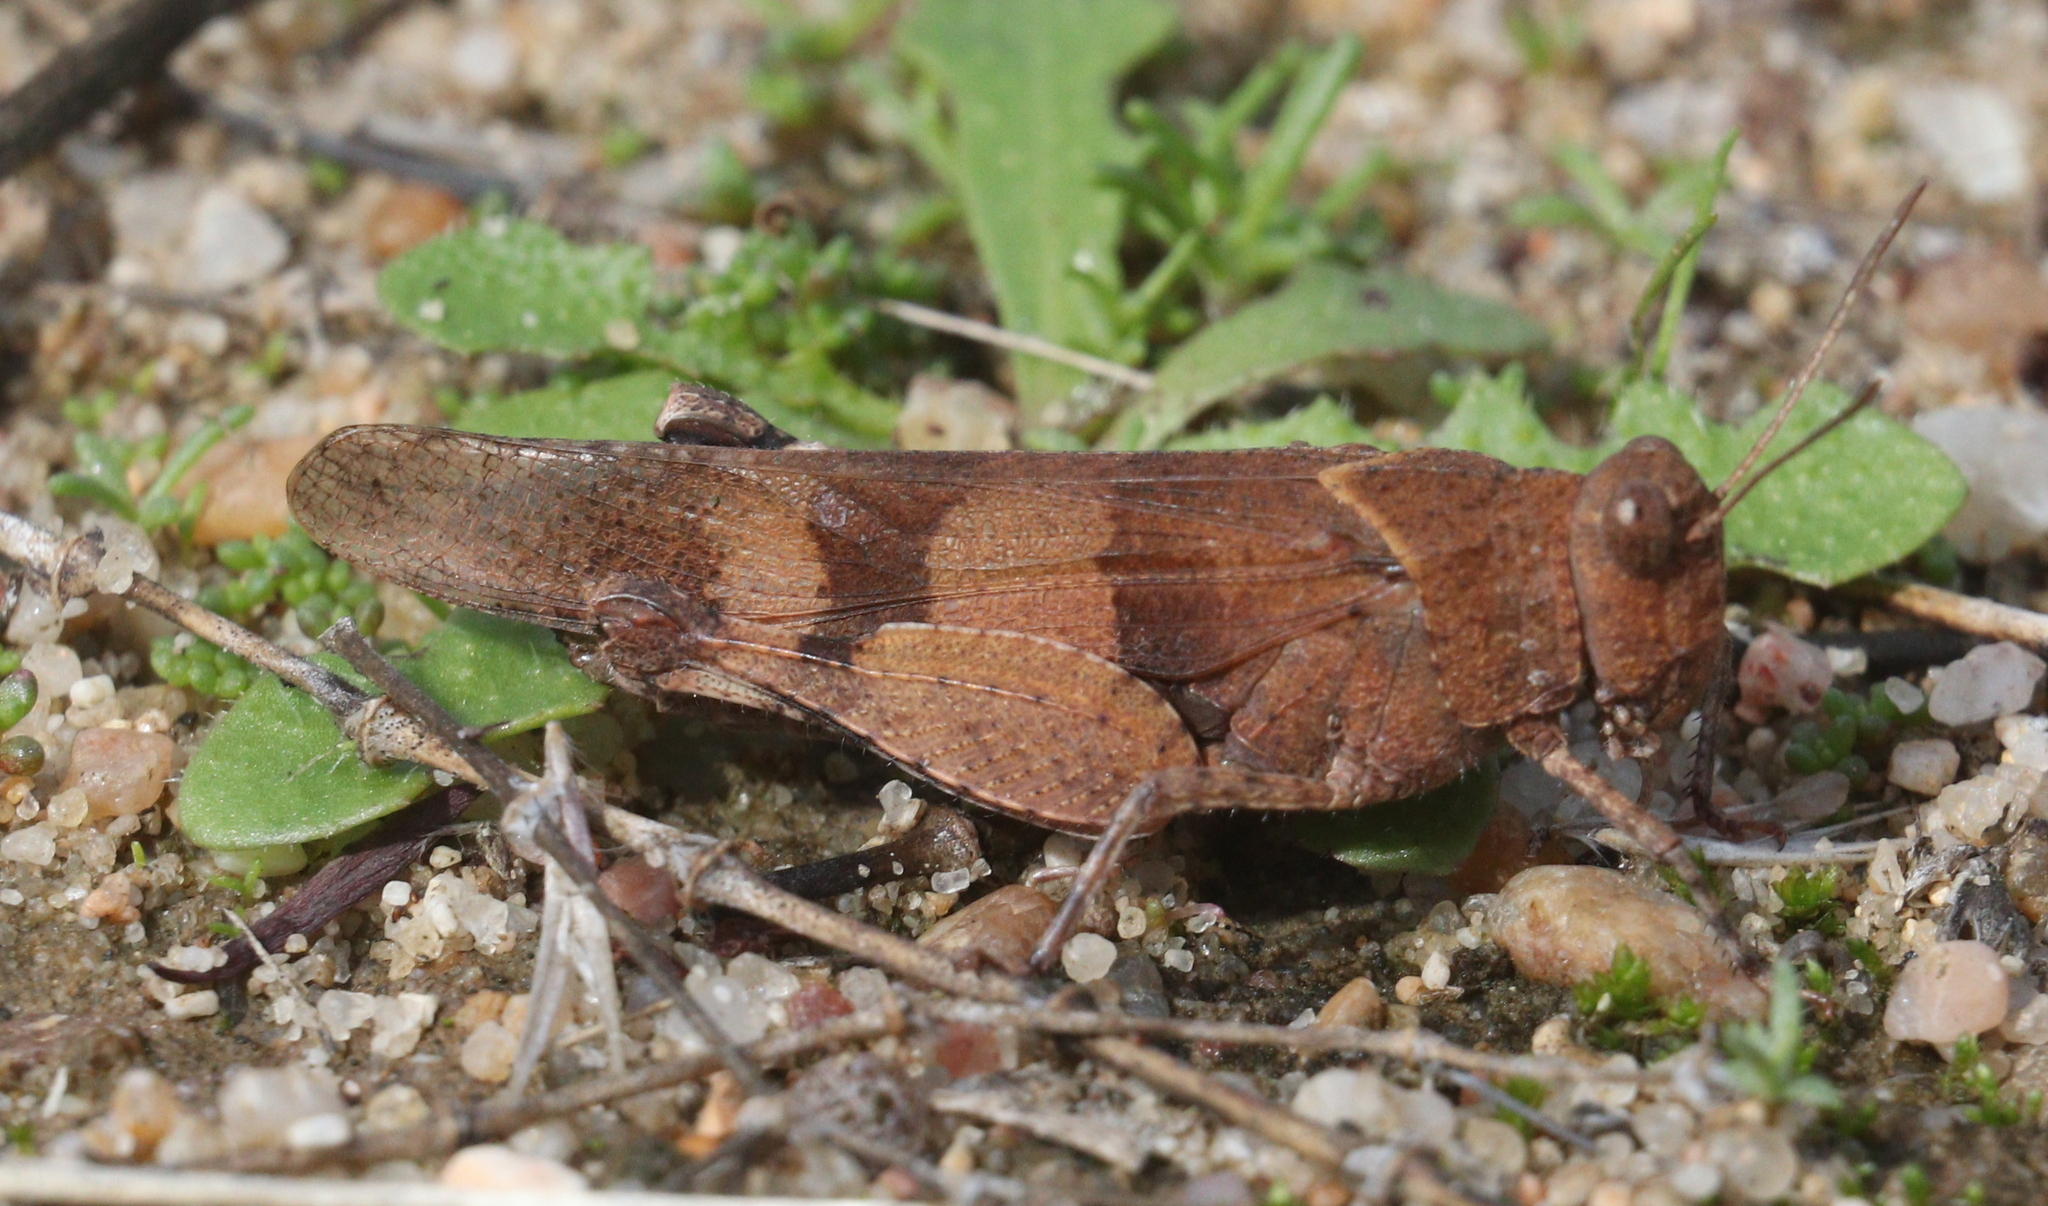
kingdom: Animalia
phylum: Arthropoda
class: Insecta
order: Orthoptera
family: Acrididae
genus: Oedipoda
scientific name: Oedipoda caerulescens
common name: Blue-winged grasshopper
